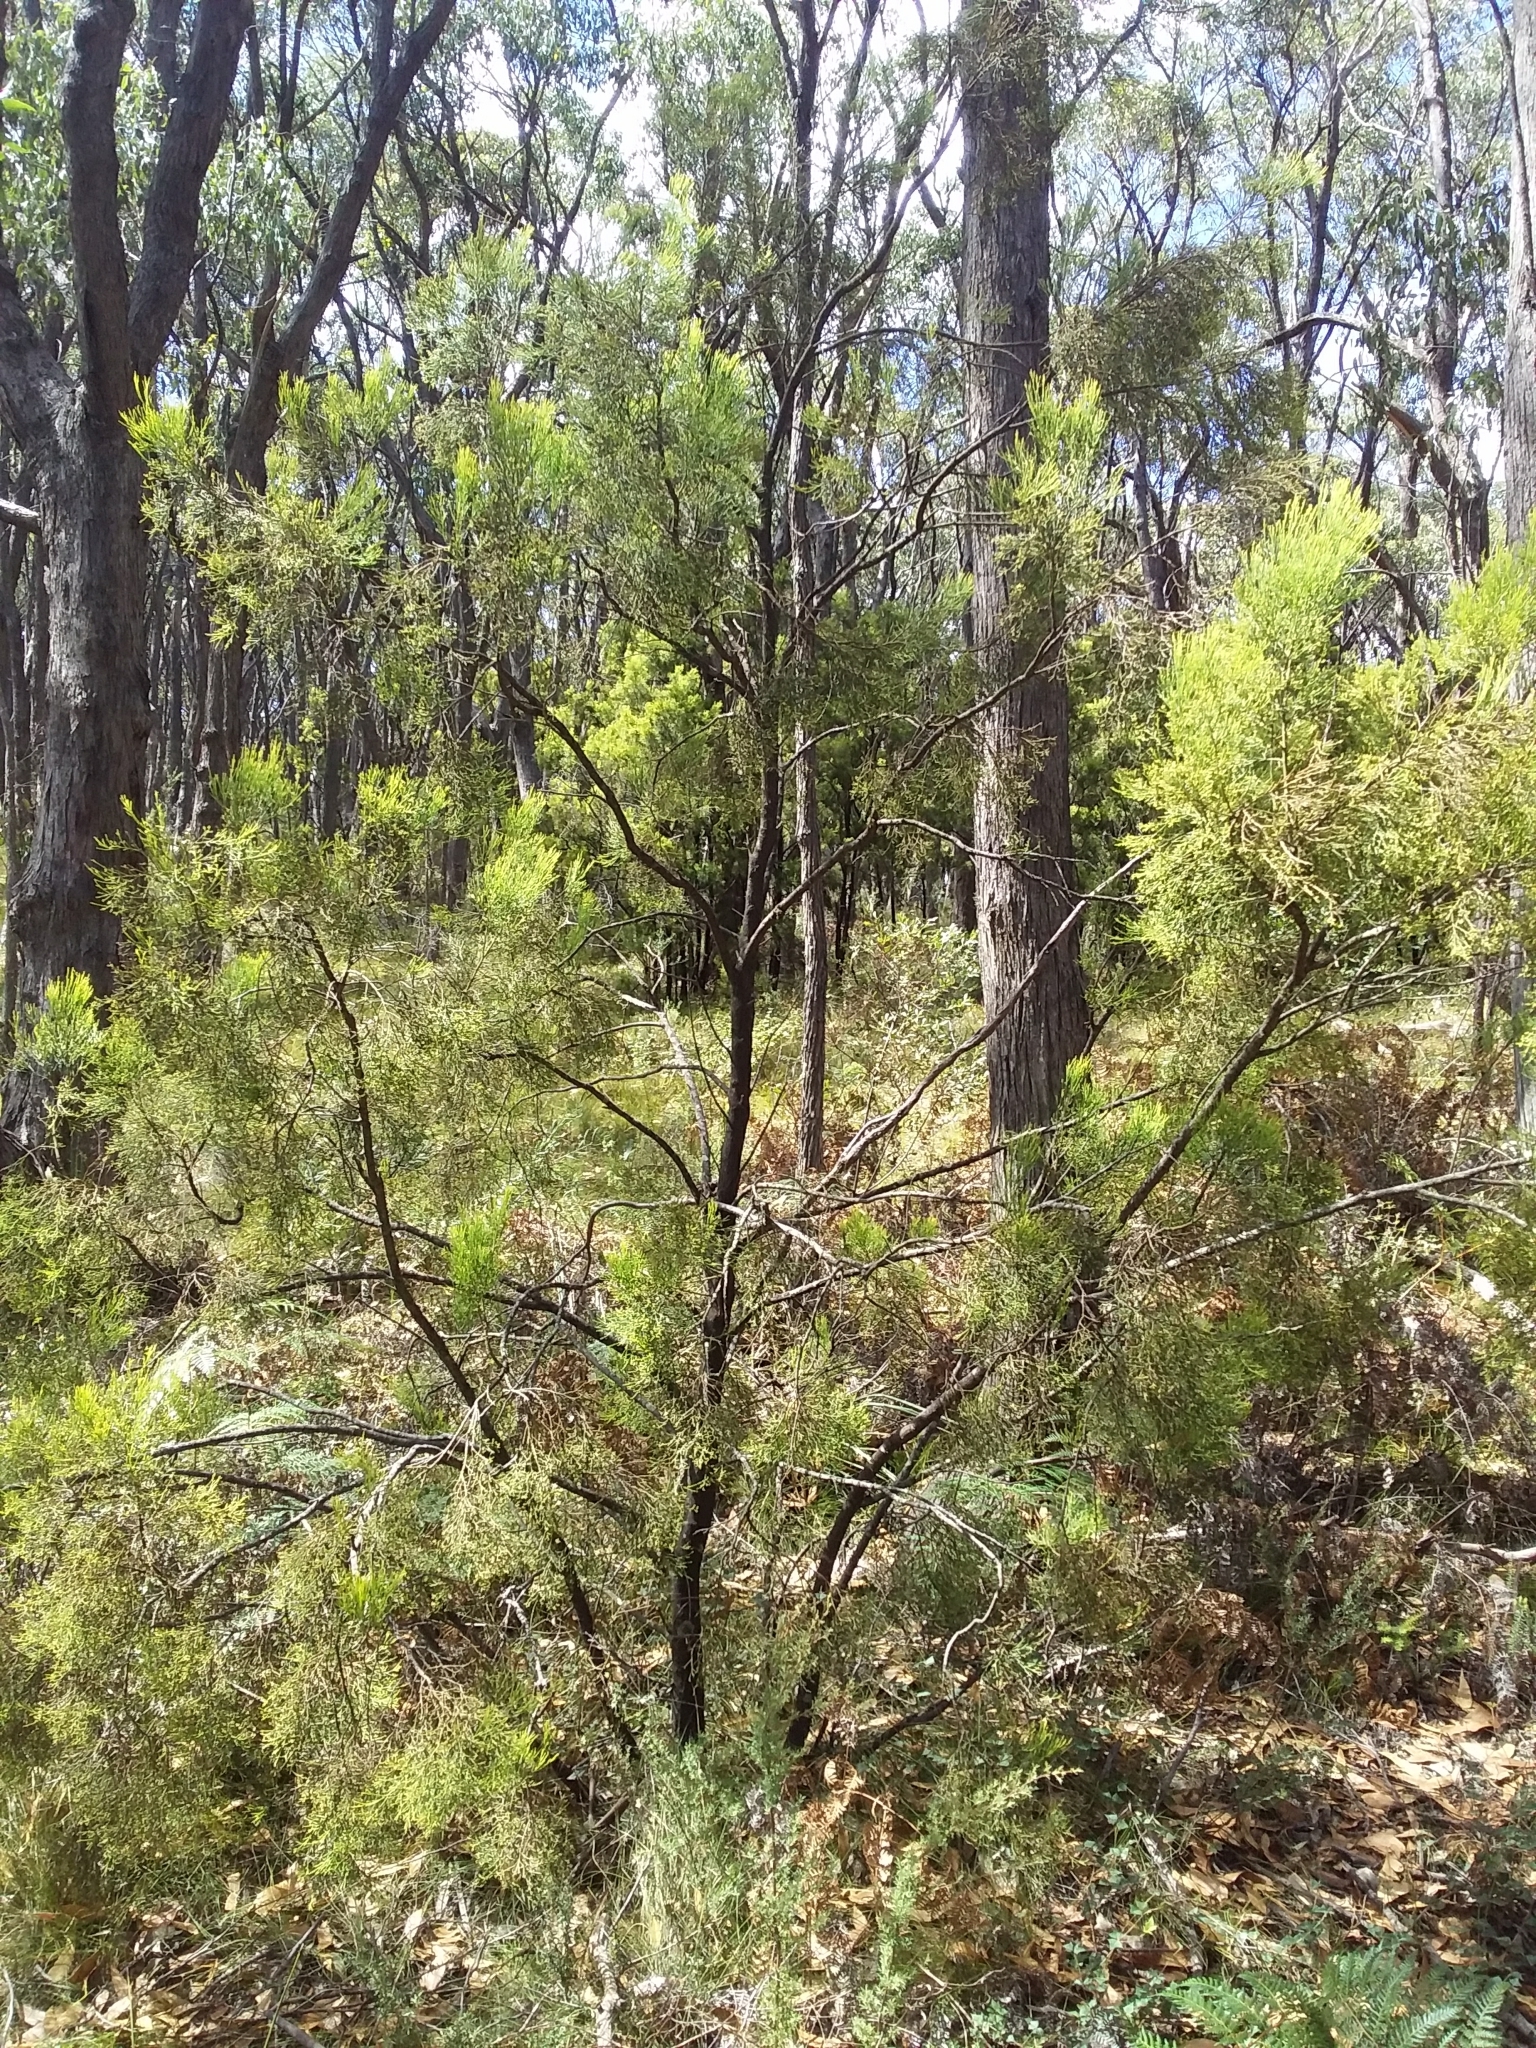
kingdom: Plantae
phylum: Tracheophyta
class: Magnoliopsida
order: Santalales
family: Santalaceae
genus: Exocarpos
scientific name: Exocarpos cupressiformis
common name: Cherry ballart
